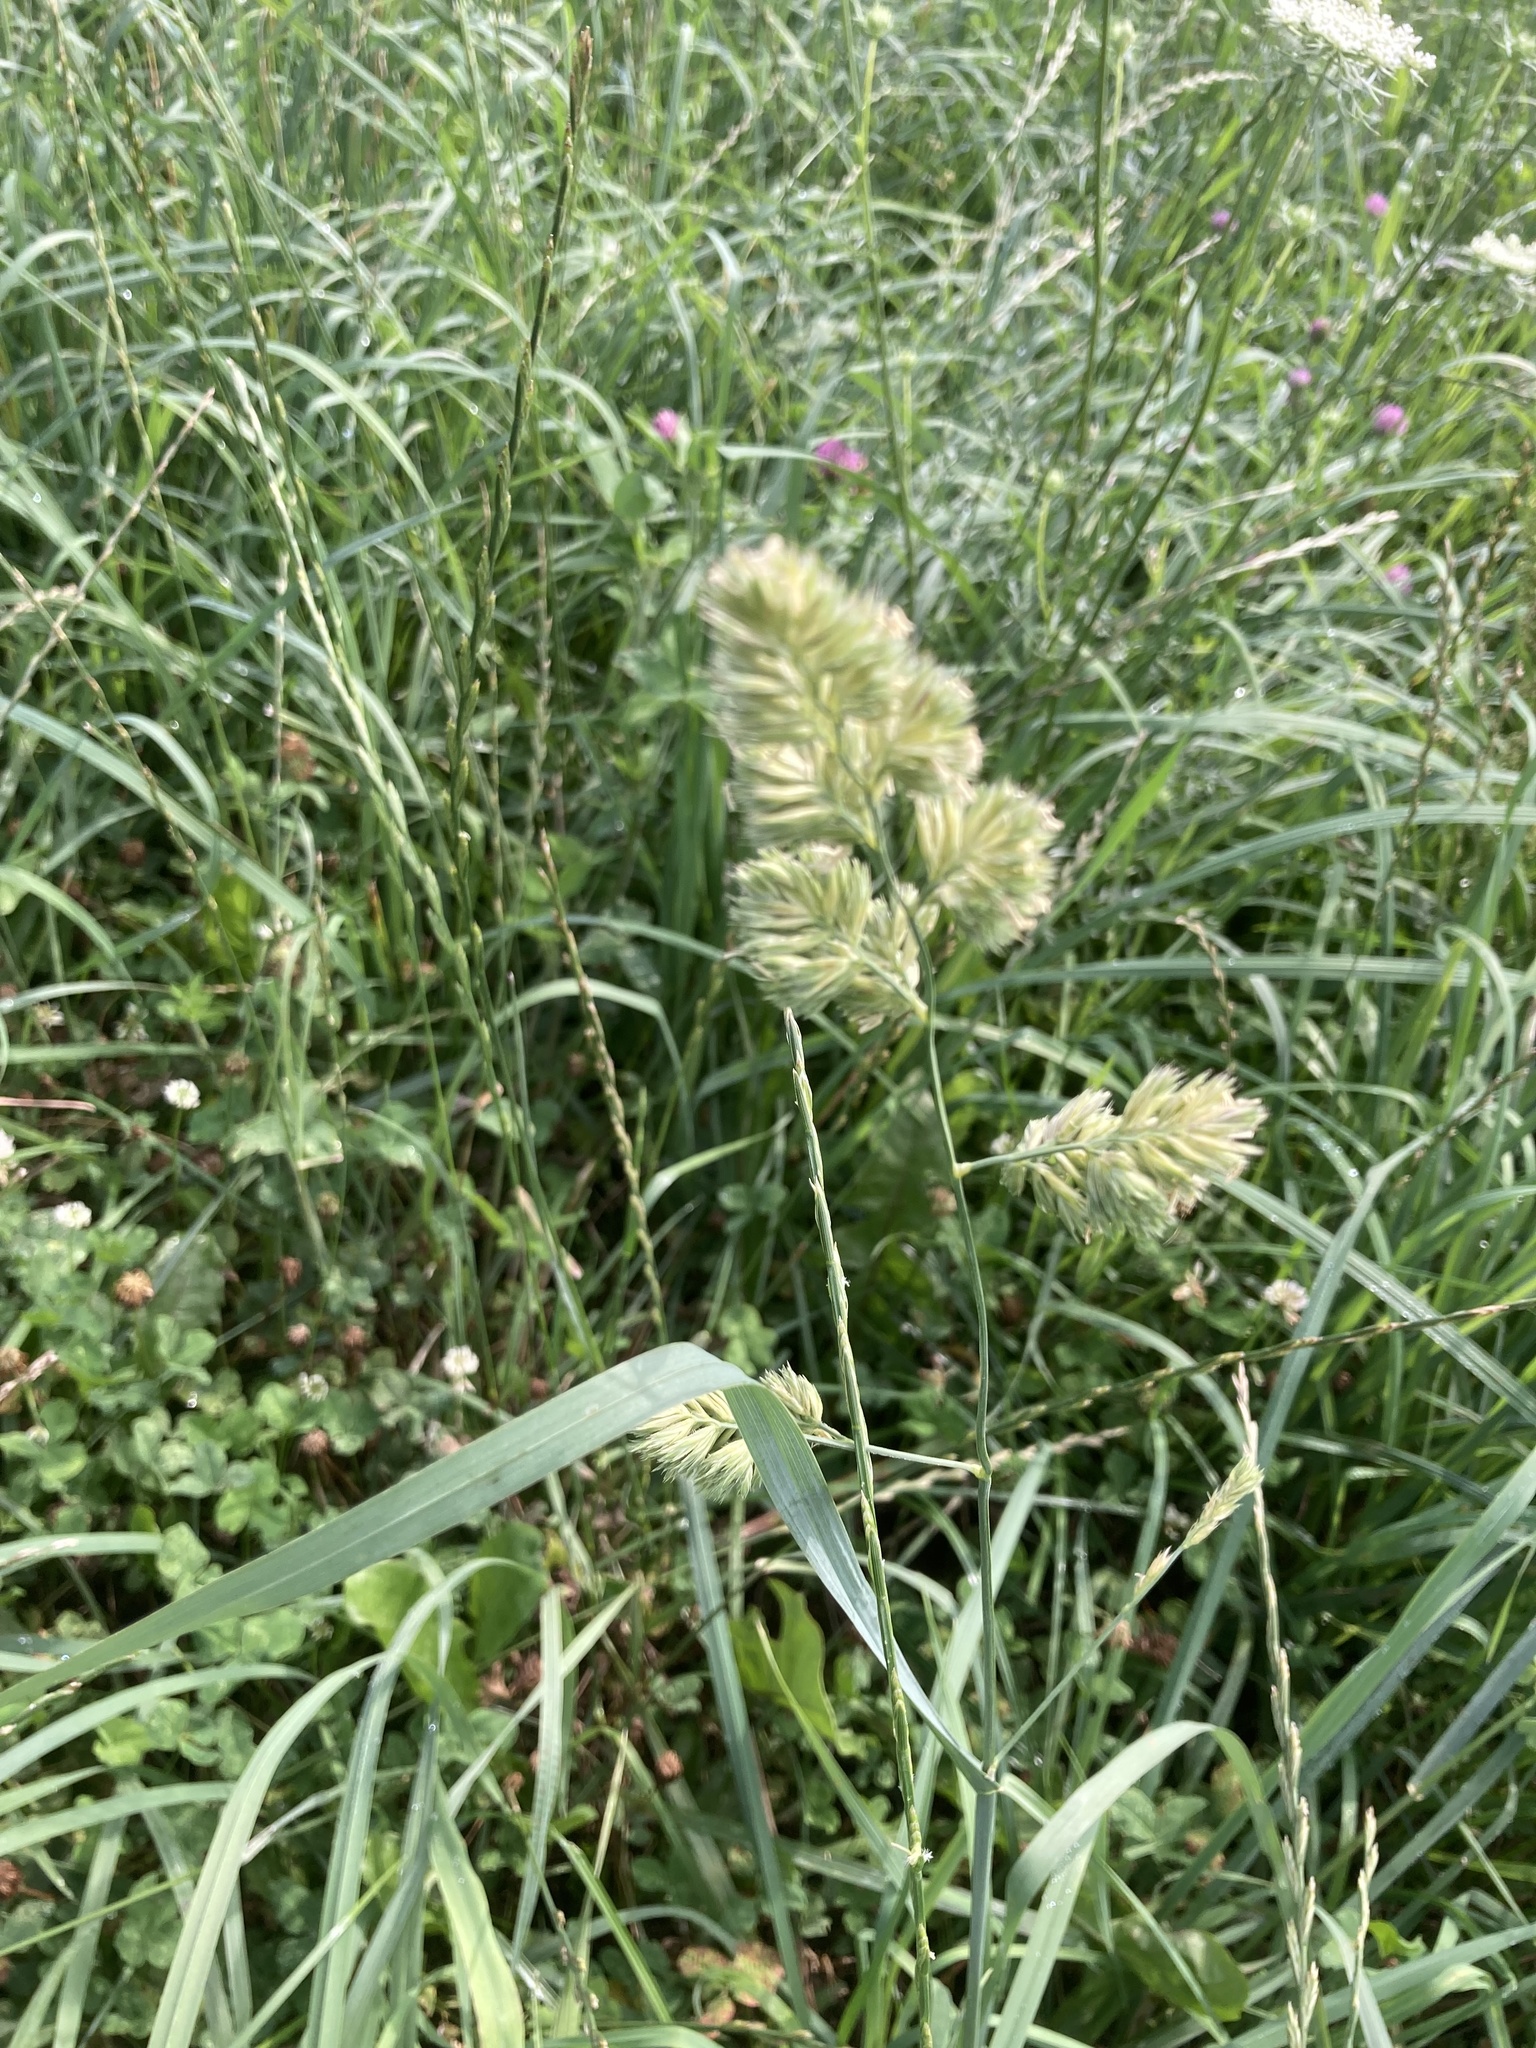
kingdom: Plantae
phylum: Tracheophyta
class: Liliopsida
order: Poales
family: Poaceae
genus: Dactylis
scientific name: Dactylis glomerata
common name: Orchardgrass
